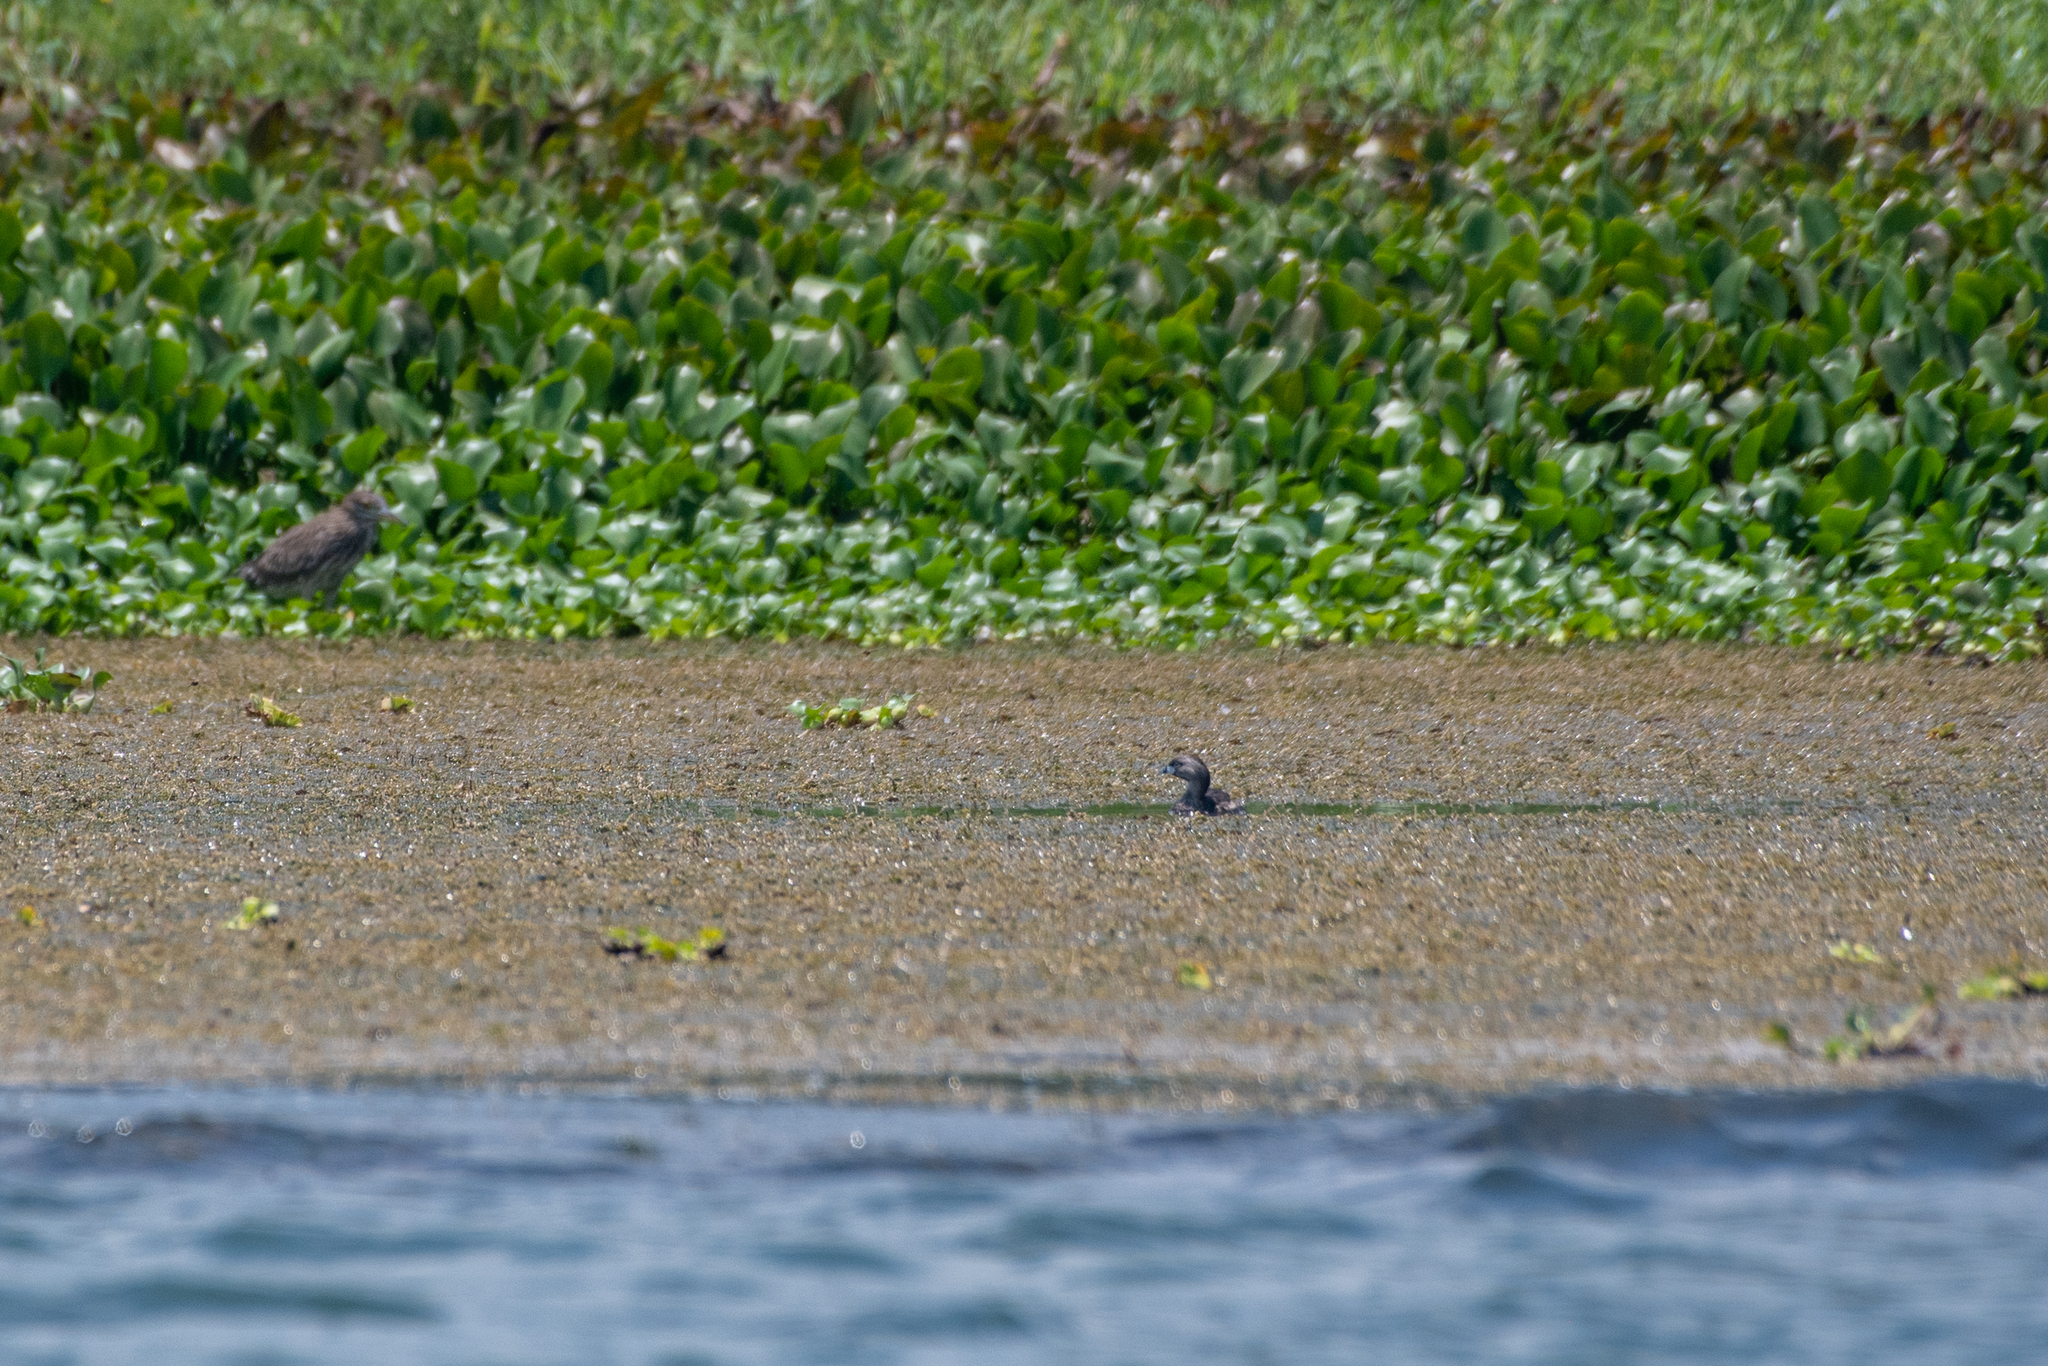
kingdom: Animalia
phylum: Chordata
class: Aves
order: Podicipediformes
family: Podicipedidae
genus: Podilymbus
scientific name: Podilymbus podiceps
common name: Pied-billed grebe
